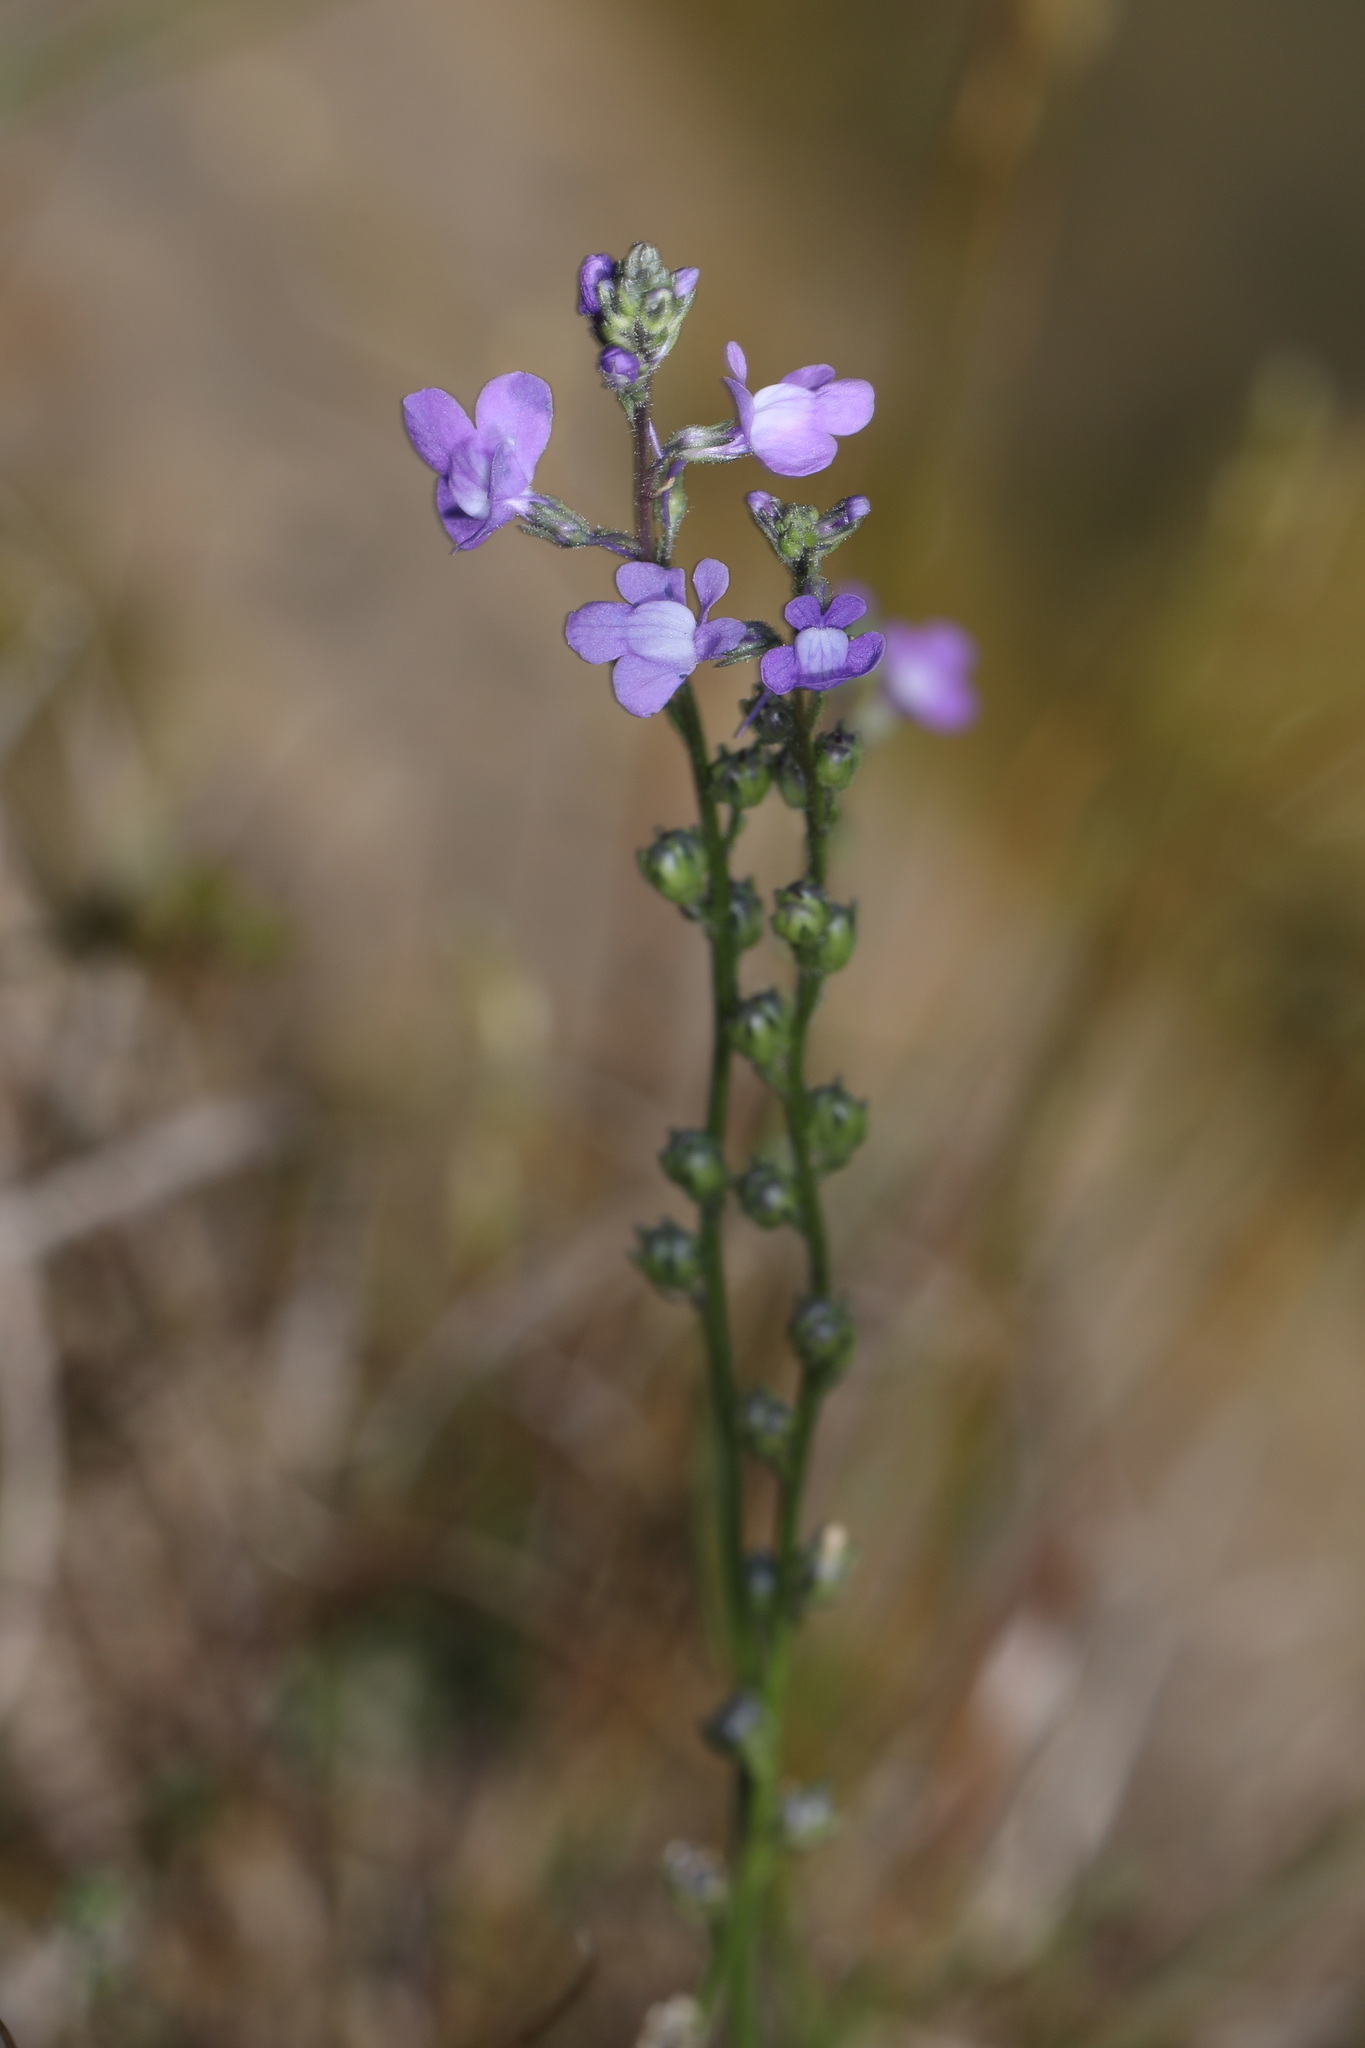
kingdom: Plantae
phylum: Tracheophyta
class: Magnoliopsida
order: Lamiales
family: Plantaginaceae
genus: Nuttallanthus
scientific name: Nuttallanthus canadensis
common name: Blue toadflax
